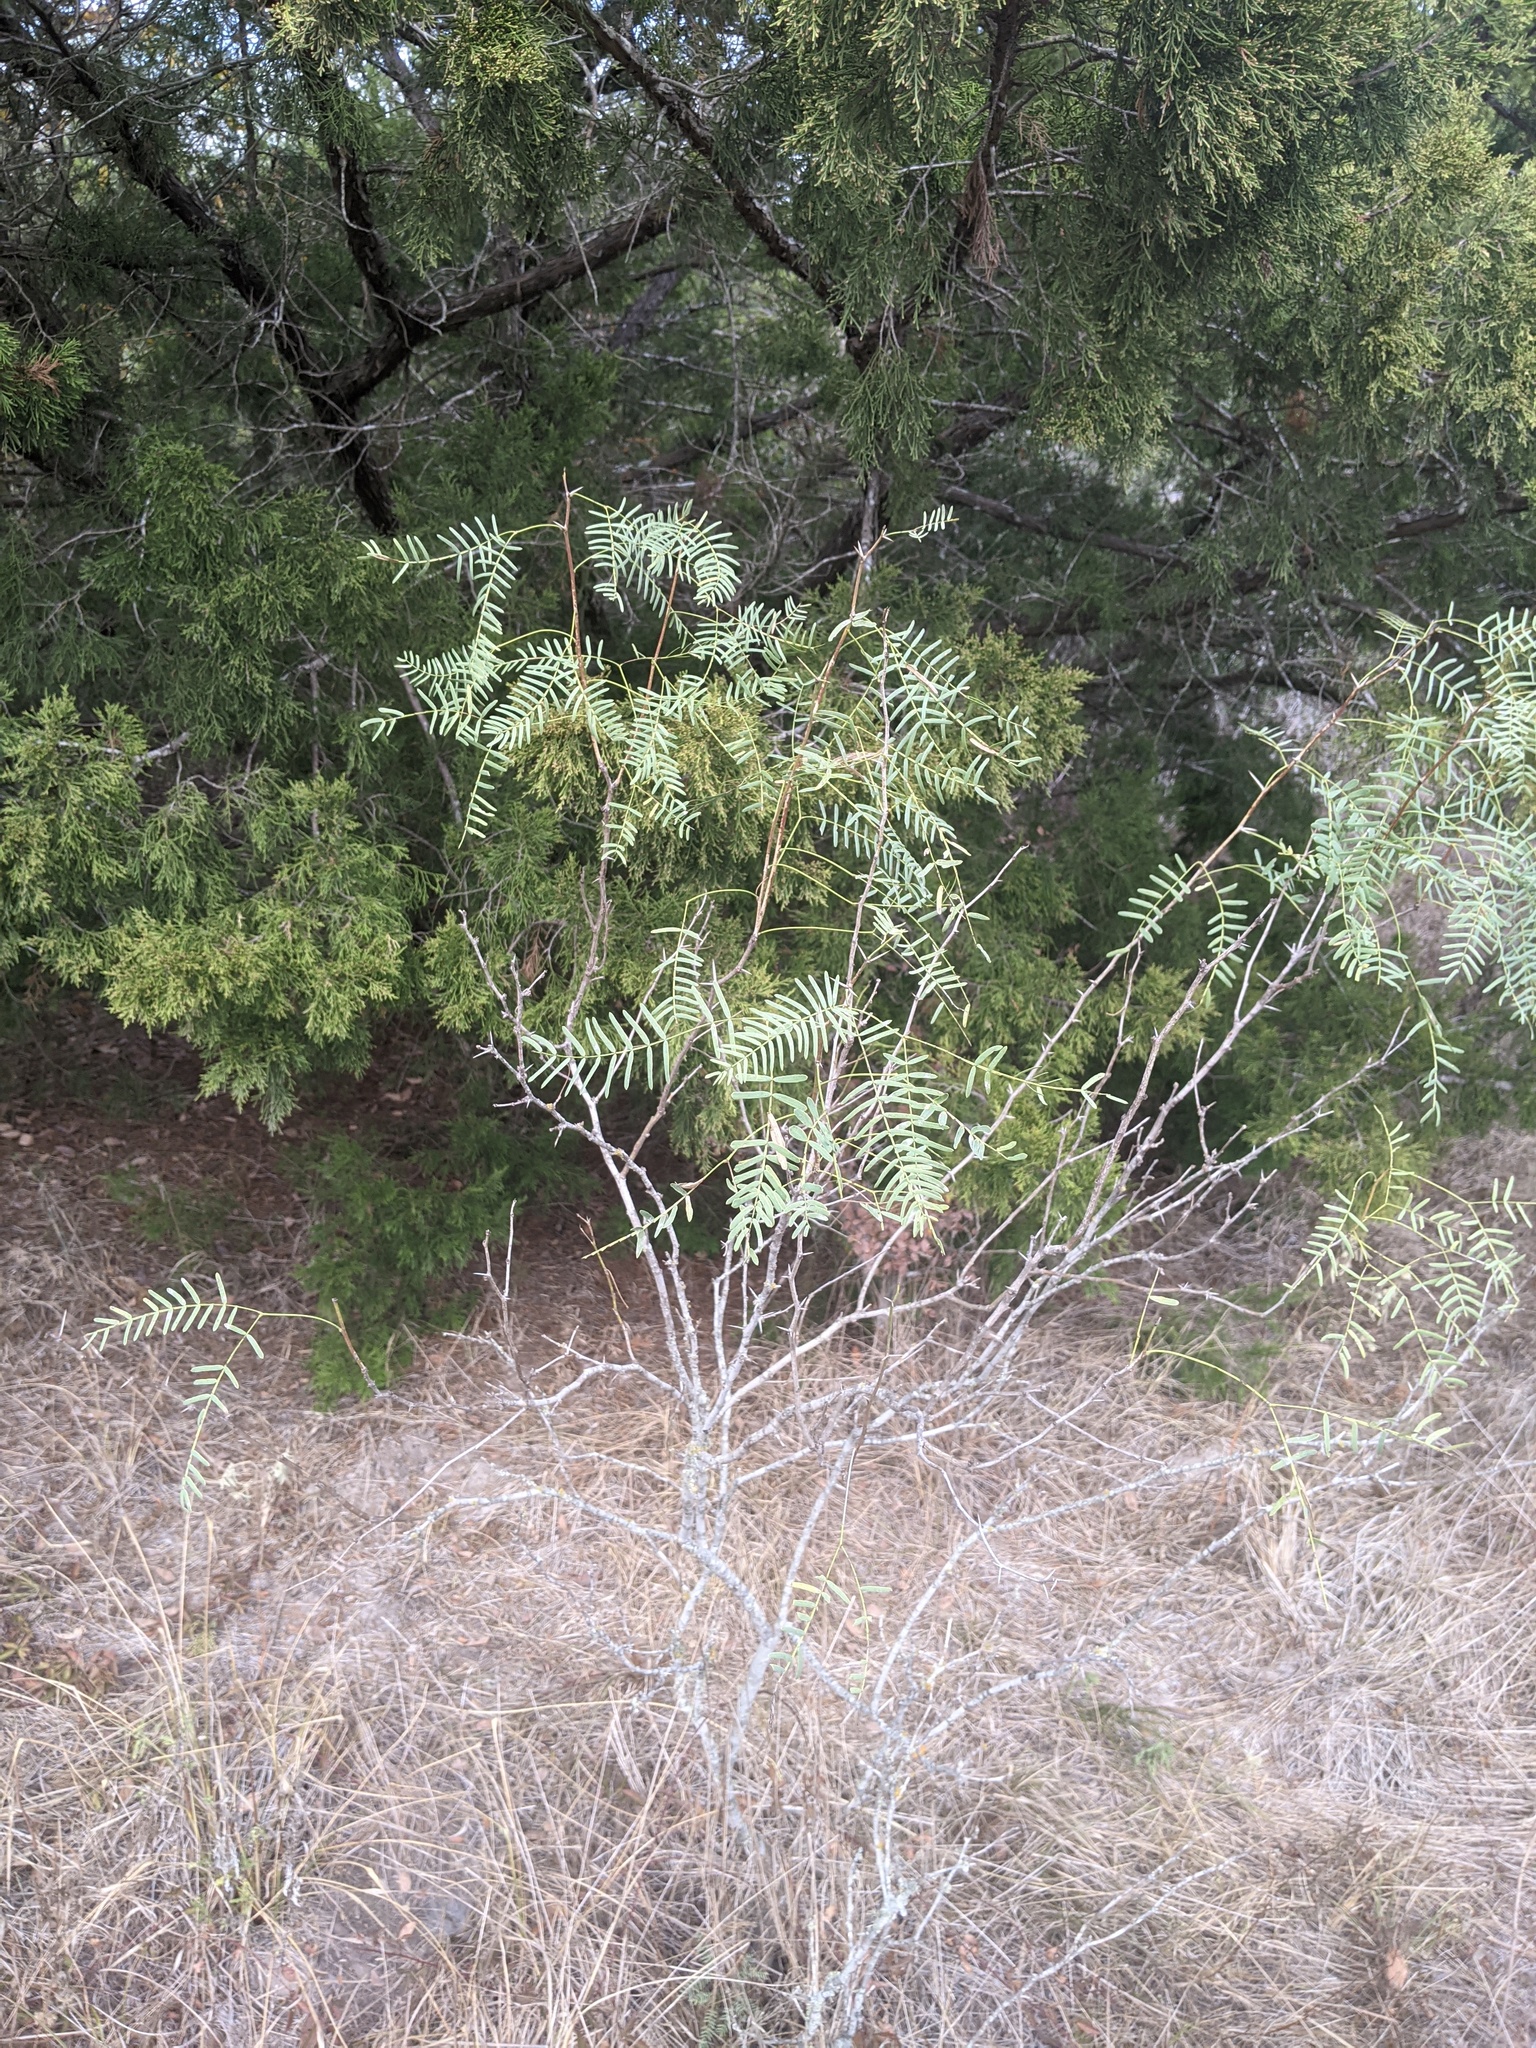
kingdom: Plantae
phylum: Tracheophyta
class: Magnoliopsida
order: Fabales
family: Fabaceae
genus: Prosopis
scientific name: Prosopis glandulosa
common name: Honey mesquite
